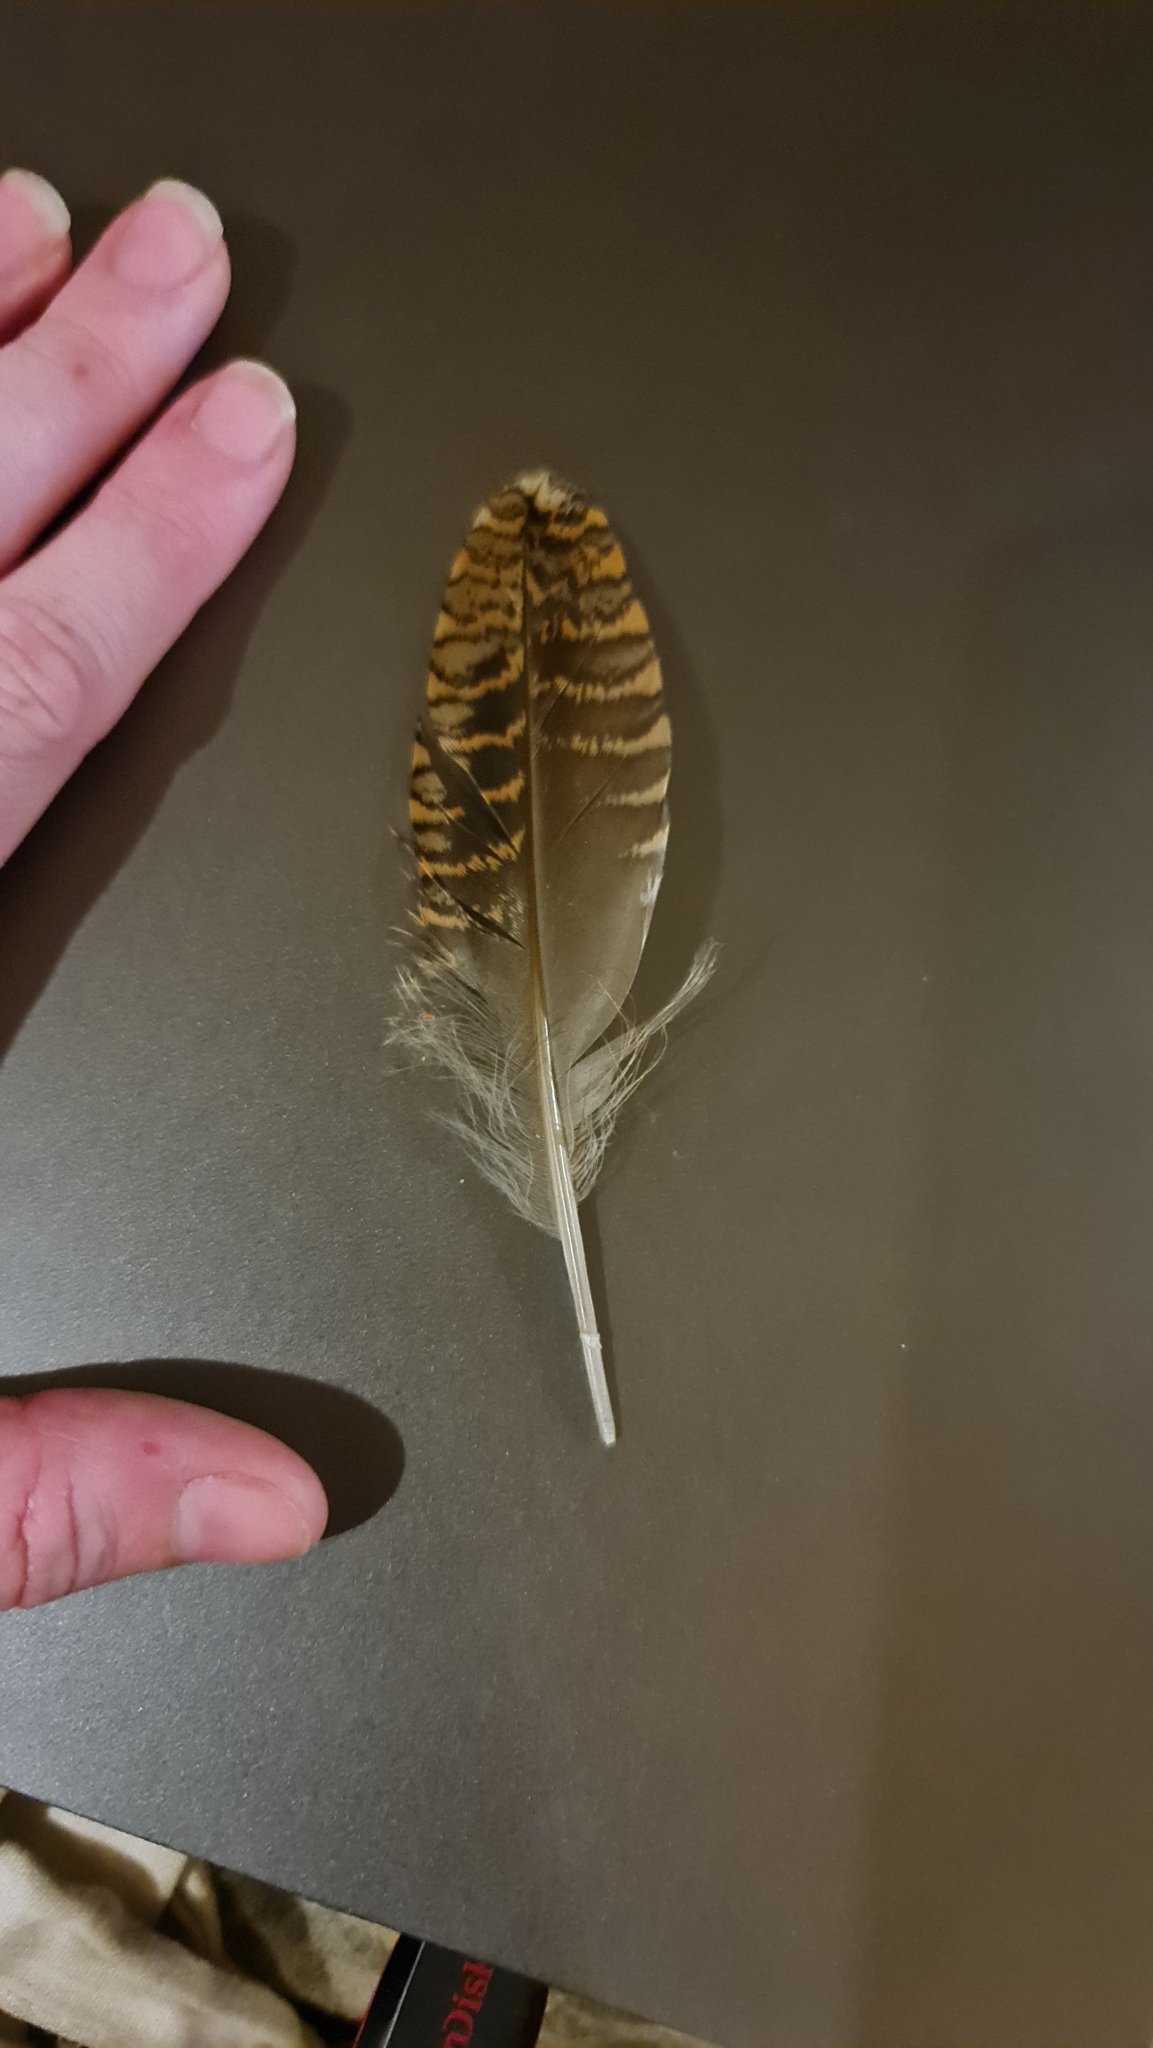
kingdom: Animalia
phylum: Chordata
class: Aves
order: Charadriiformes
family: Scolopacidae
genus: Scolopax
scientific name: Scolopax rusticola
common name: Eurasian woodcock
